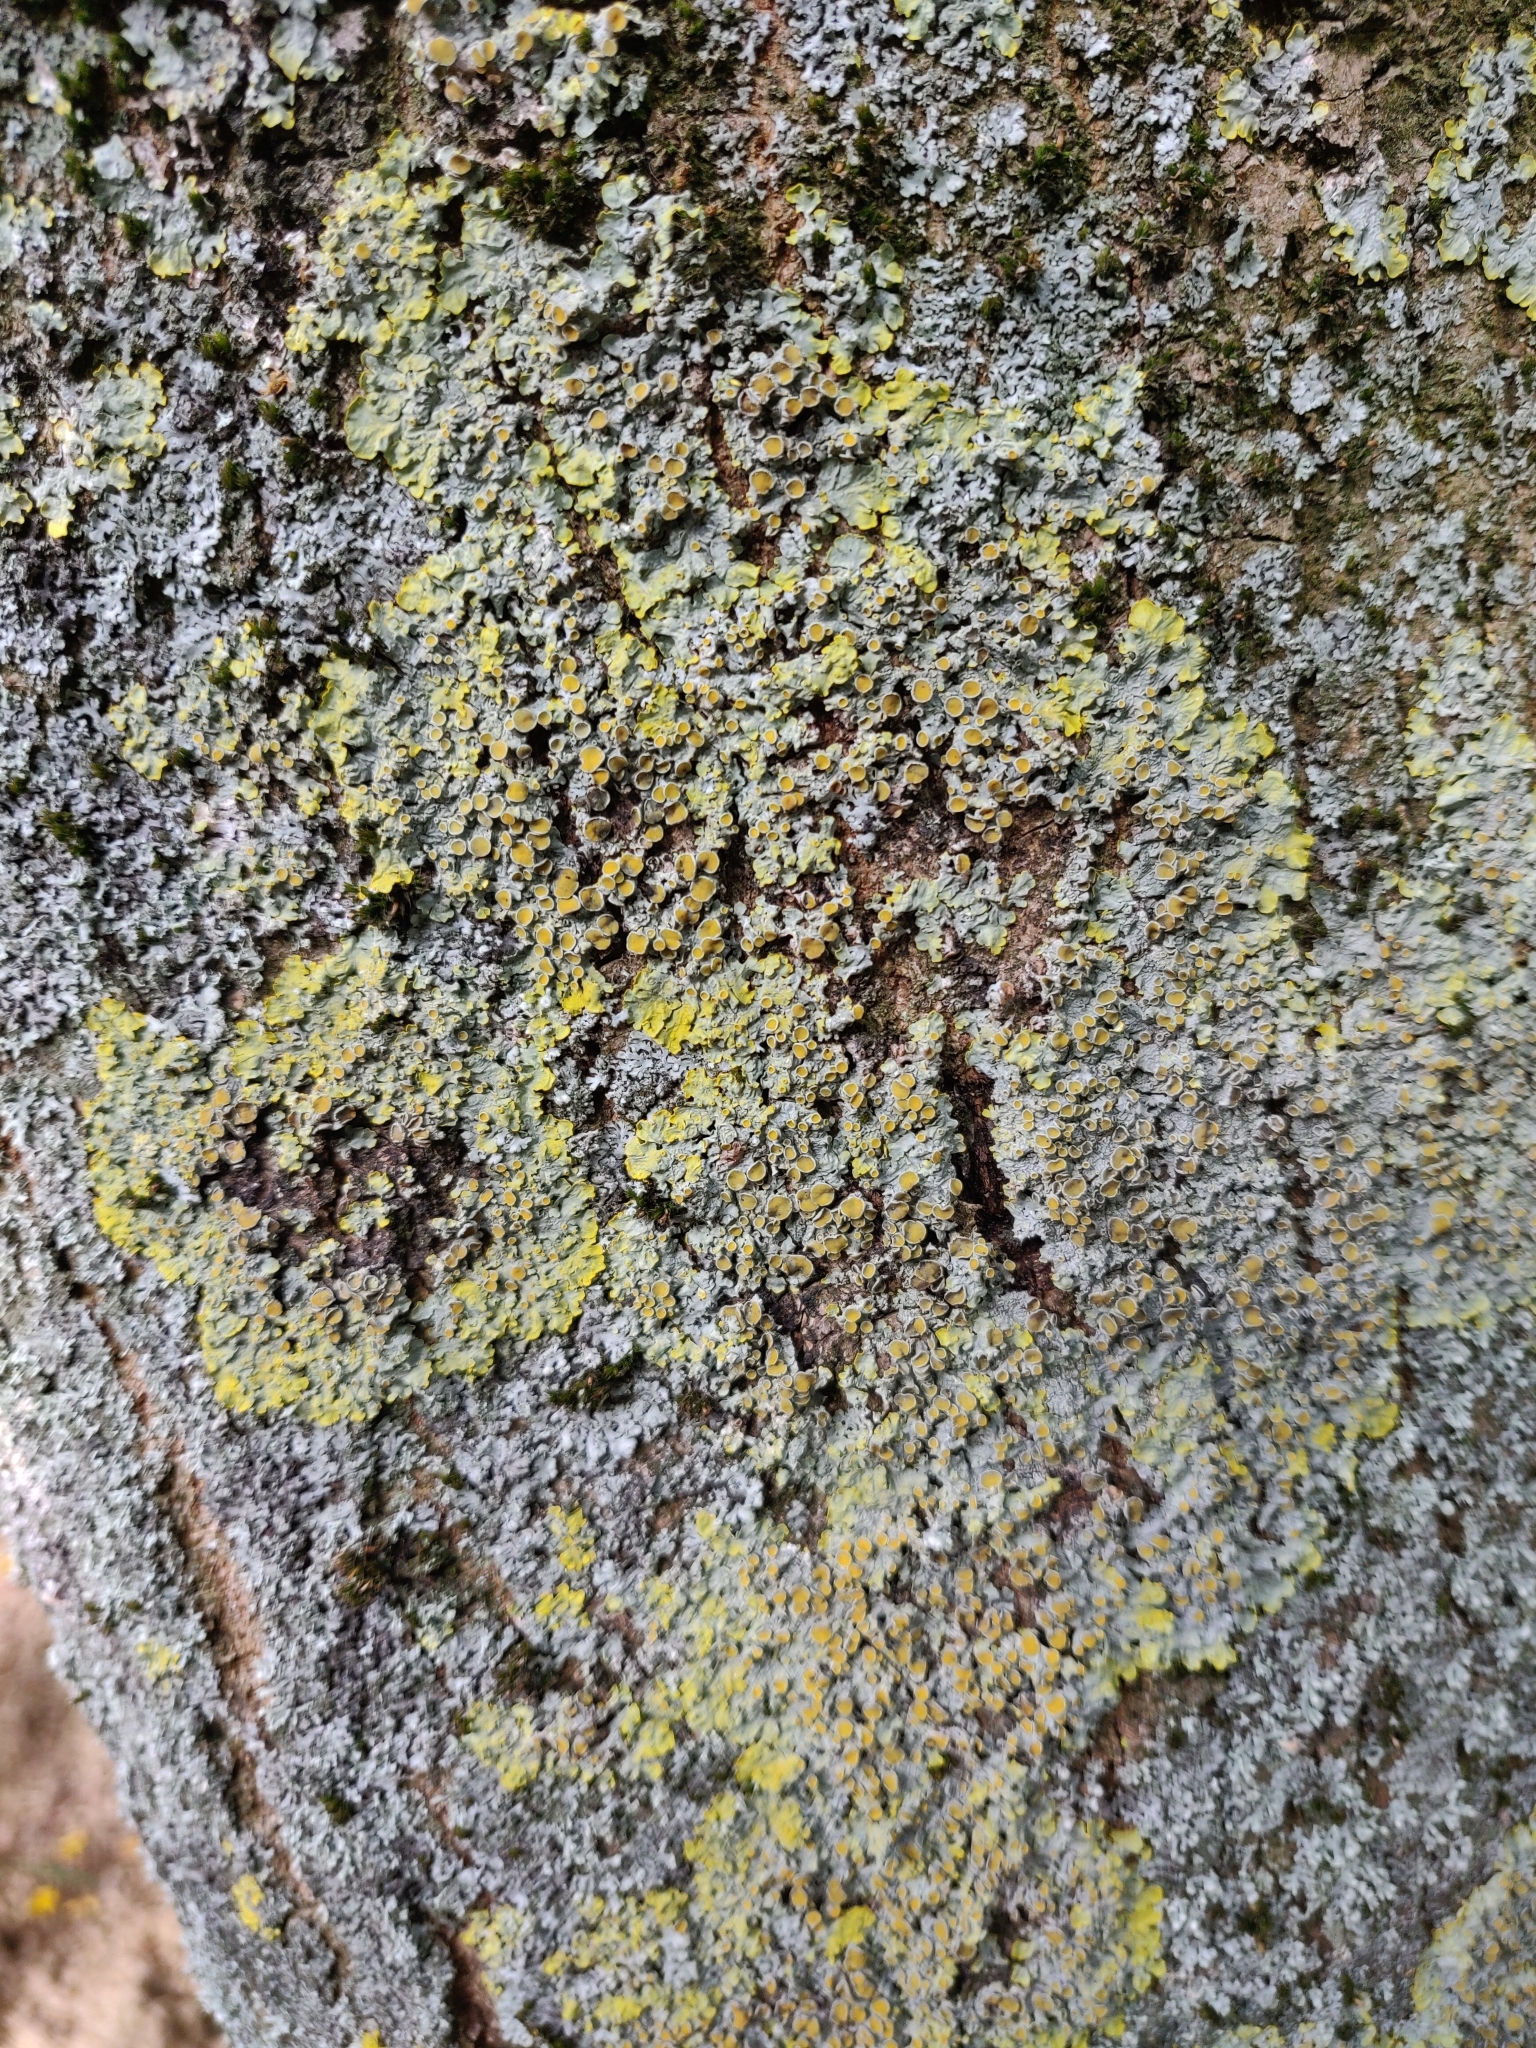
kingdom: Fungi
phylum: Ascomycota
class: Lecanoromycetes
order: Teloschistales
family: Teloschistaceae
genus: Xanthoria
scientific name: Xanthoria parietina
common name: Common orange lichen
